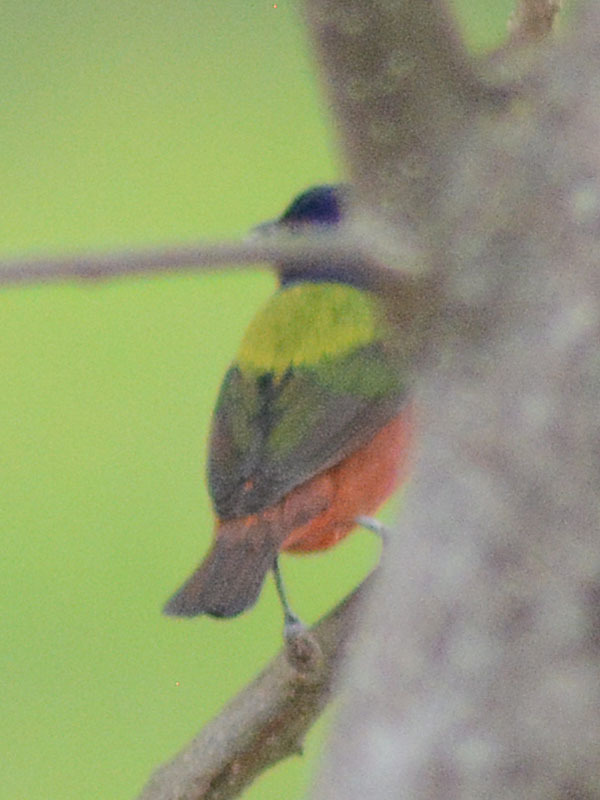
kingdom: Animalia
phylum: Chordata
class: Aves
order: Passeriformes
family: Cardinalidae
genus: Passerina
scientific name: Passerina ciris
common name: Painted bunting
